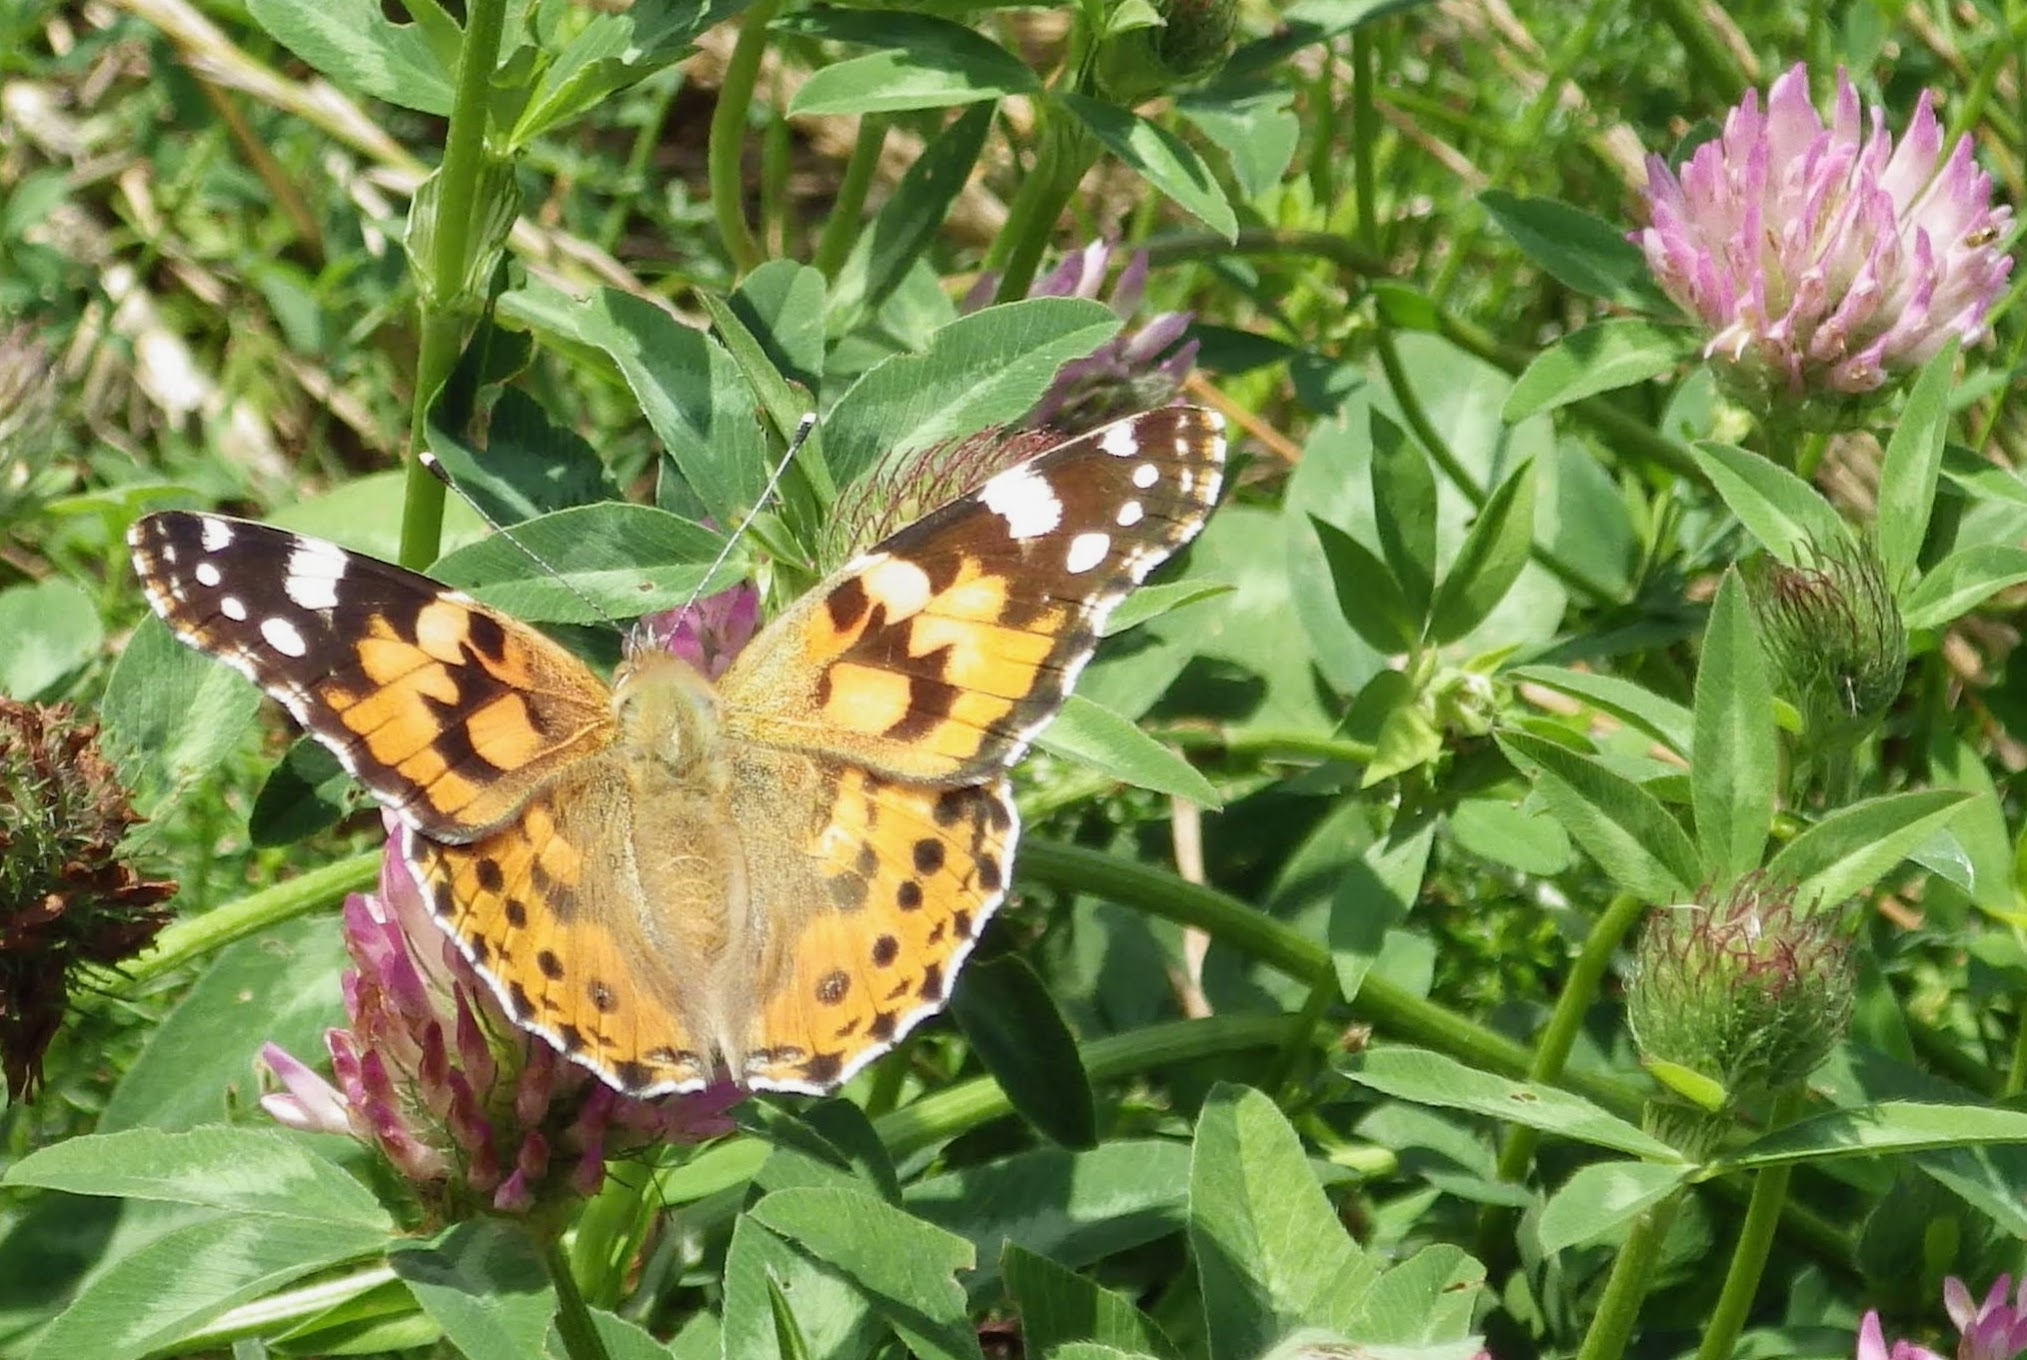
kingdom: Animalia
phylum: Arthropoda
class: Insecta
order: Lepidoptera
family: Nymphalidae
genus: Vanessa
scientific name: Vanessa cardui
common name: Painted lady
